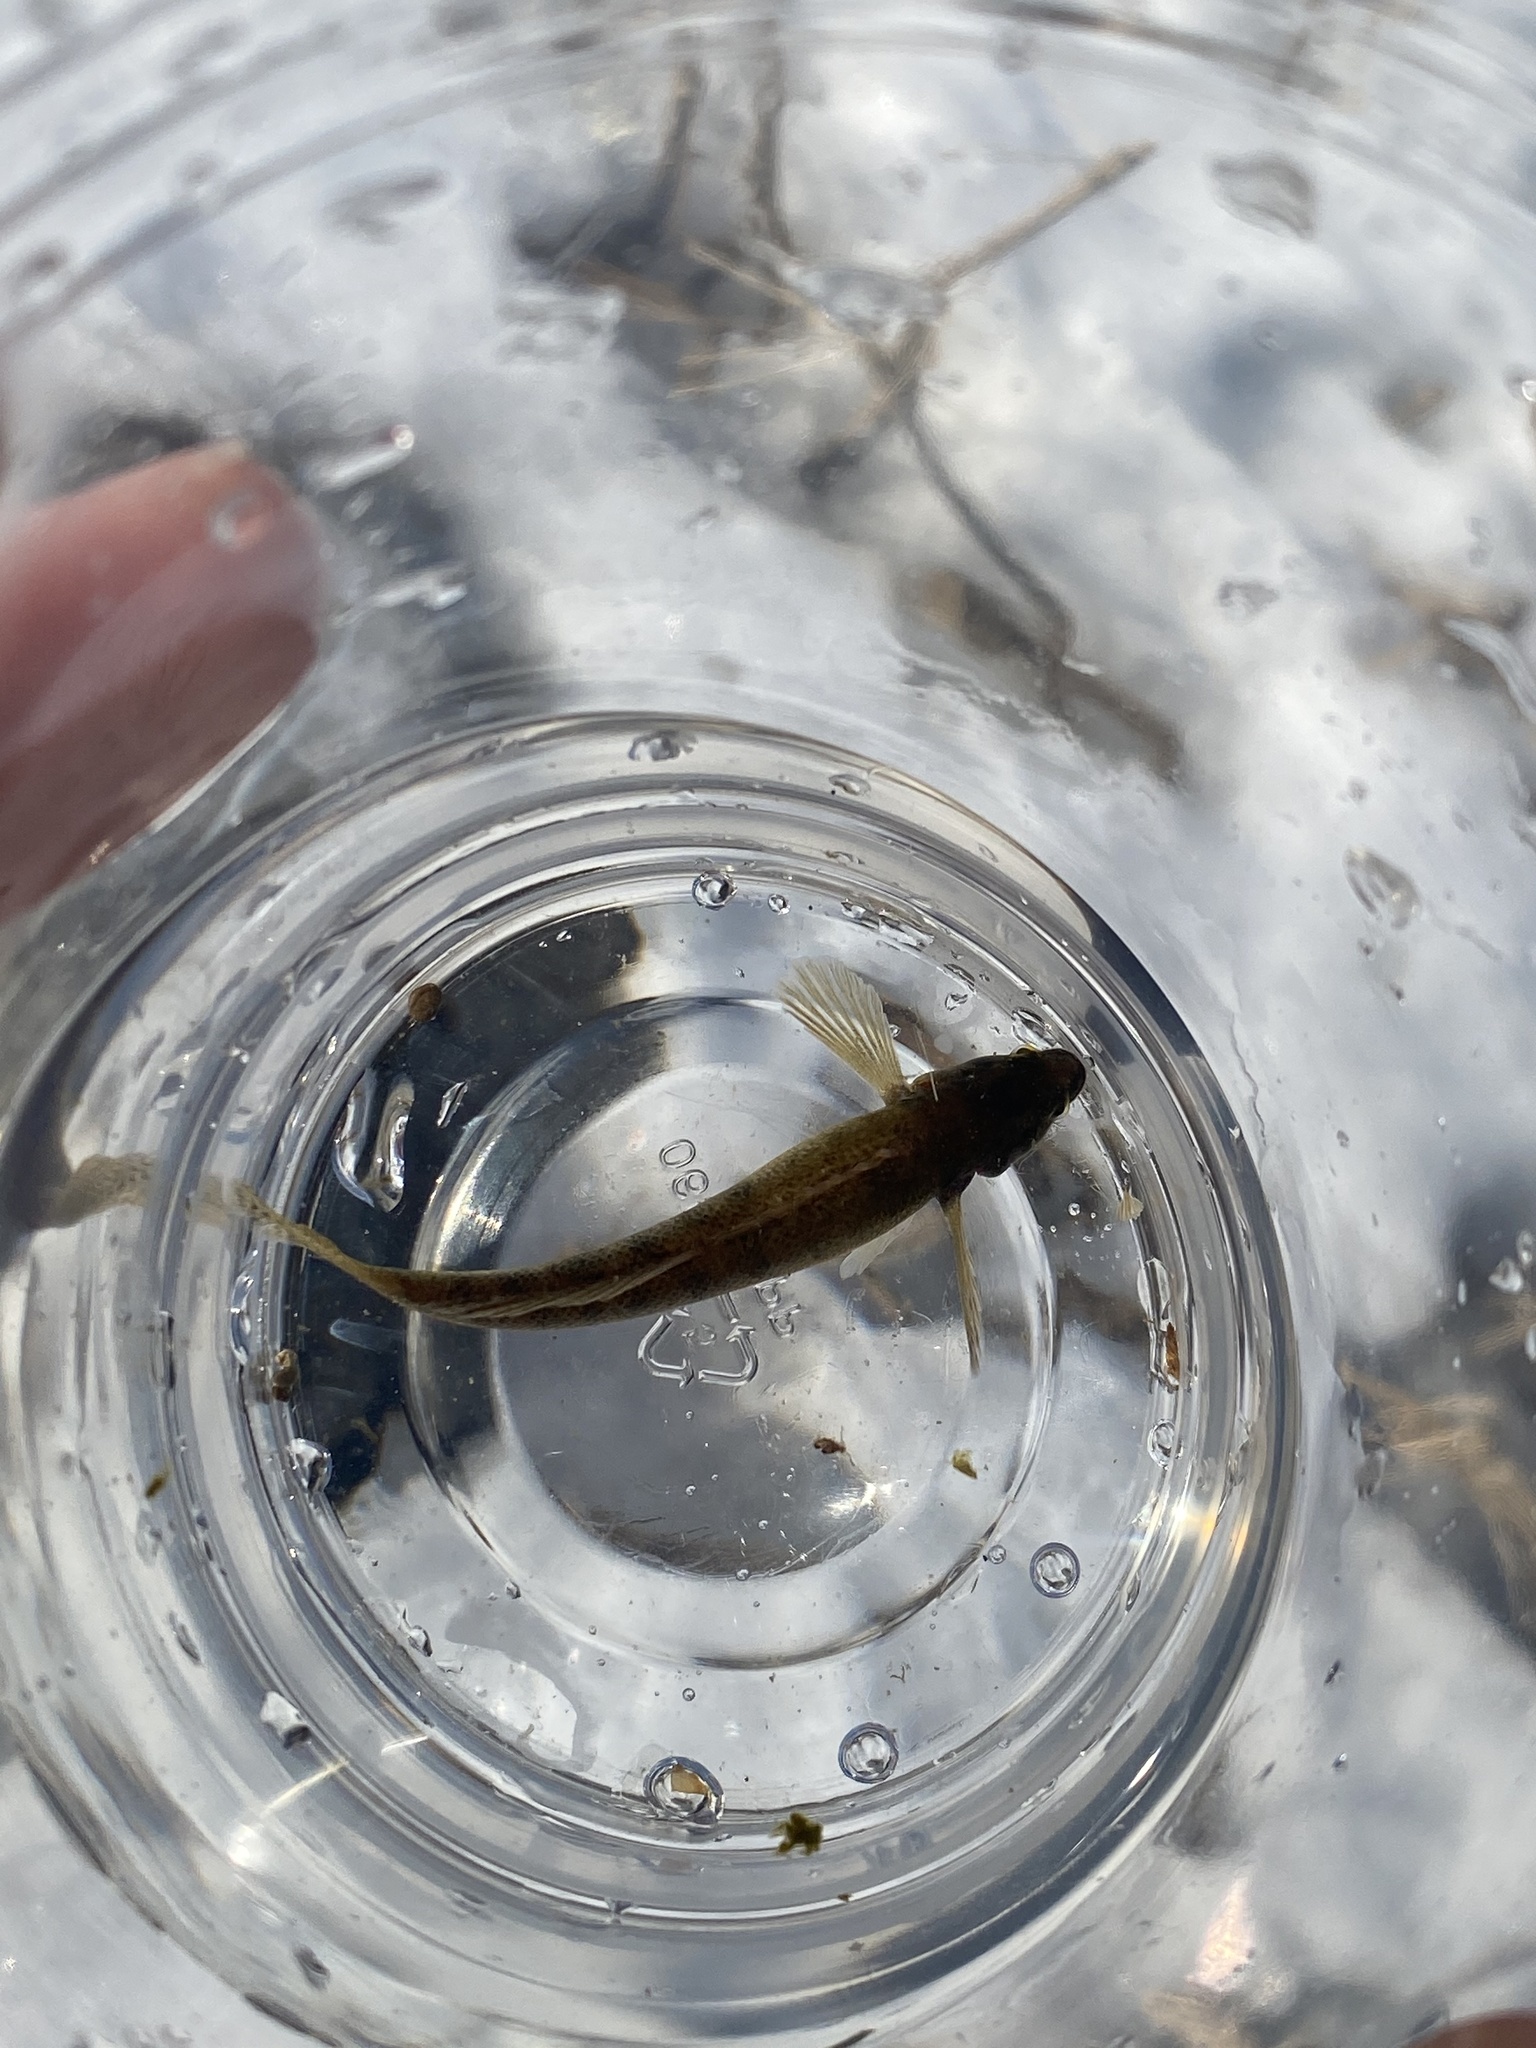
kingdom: Animalia
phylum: Chordata
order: Perciformes
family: Percidae
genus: Etheostoma
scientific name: Etheostoma flabellare
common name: Fantail darter
